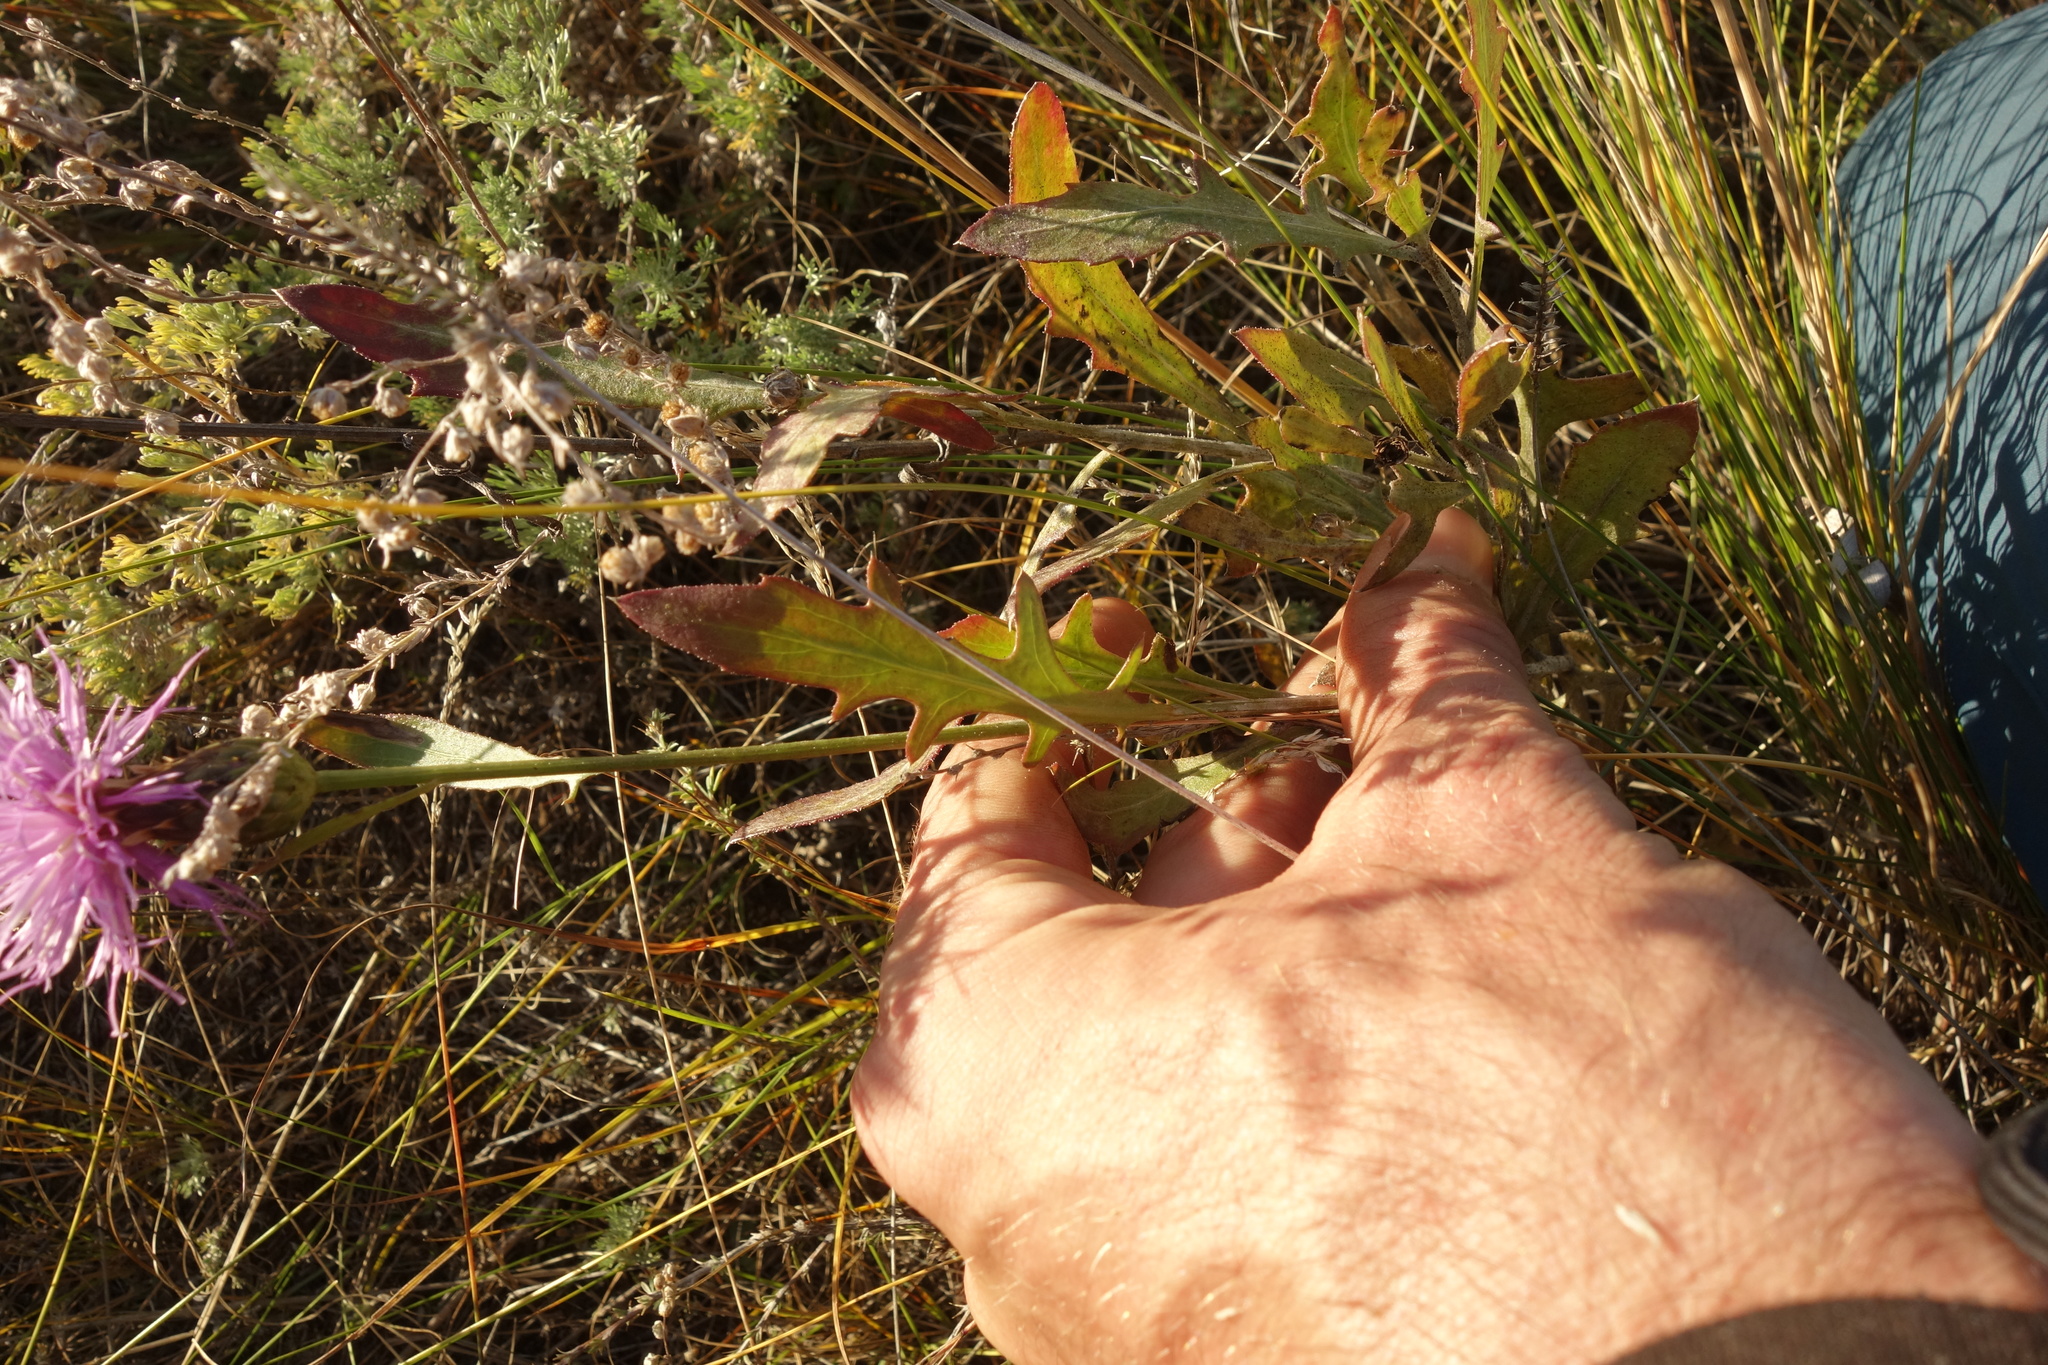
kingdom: Plantae
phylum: Tracheophyta
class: Magnoliopsida
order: Asterales
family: Asteraceae
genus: Klasea
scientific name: Klasea centauroides
